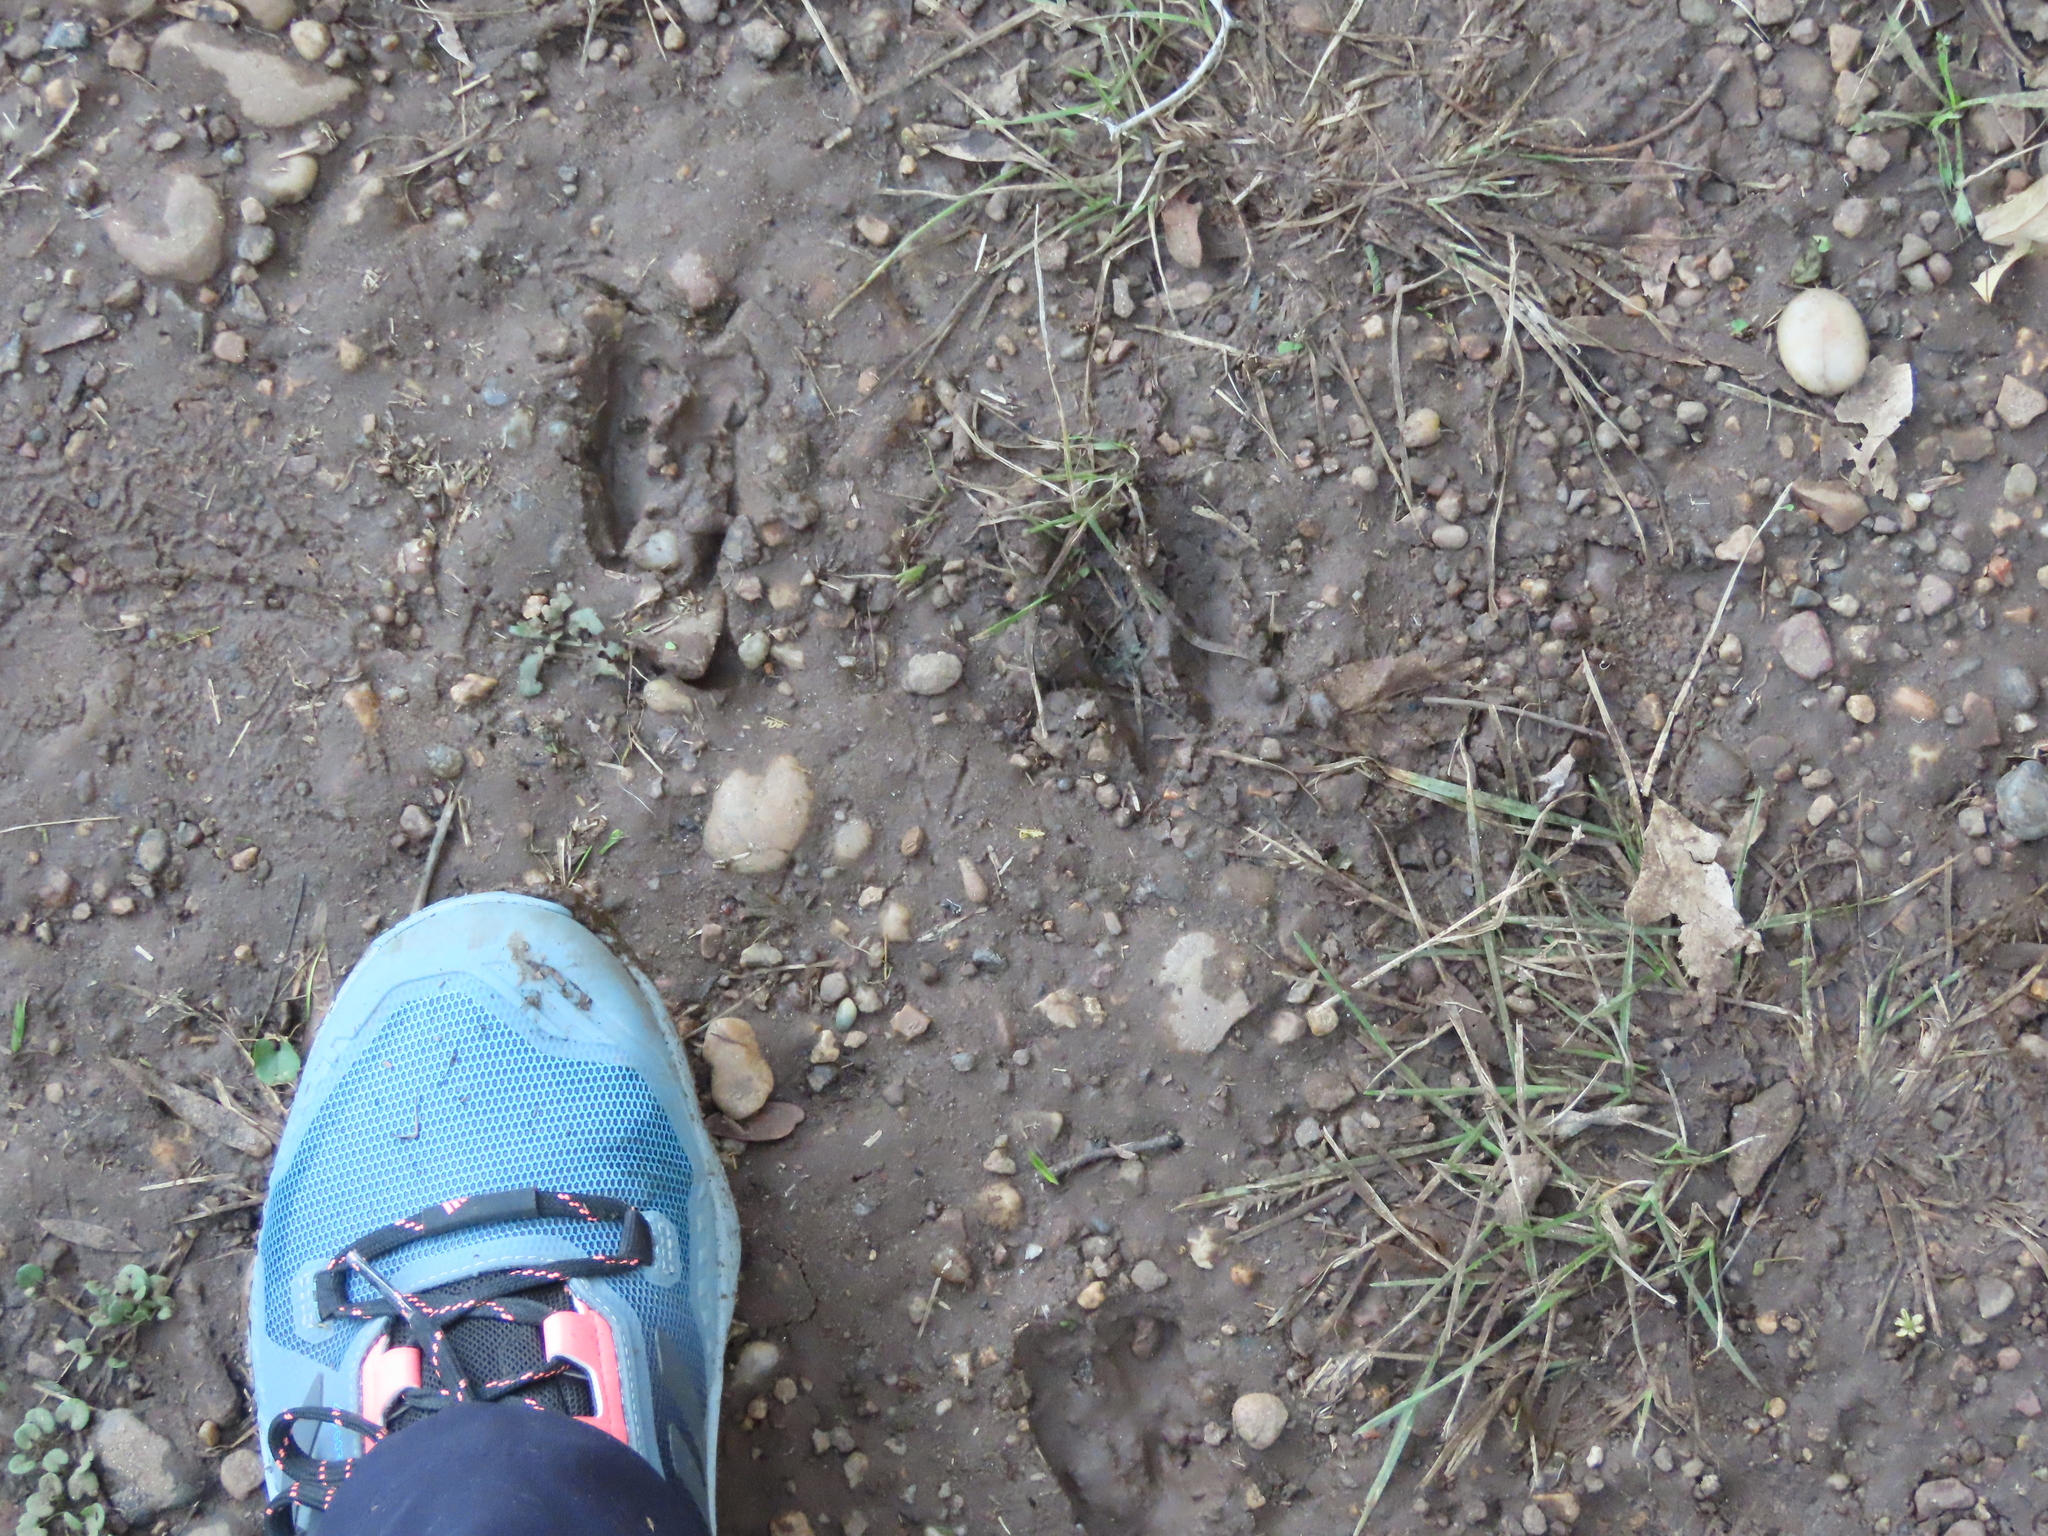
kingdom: Animalia
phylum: Chordata
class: Mammalia
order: Artiodactyla
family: Cervidae
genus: Mazama
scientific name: Mazama gouazoubira
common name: Gray brocket
